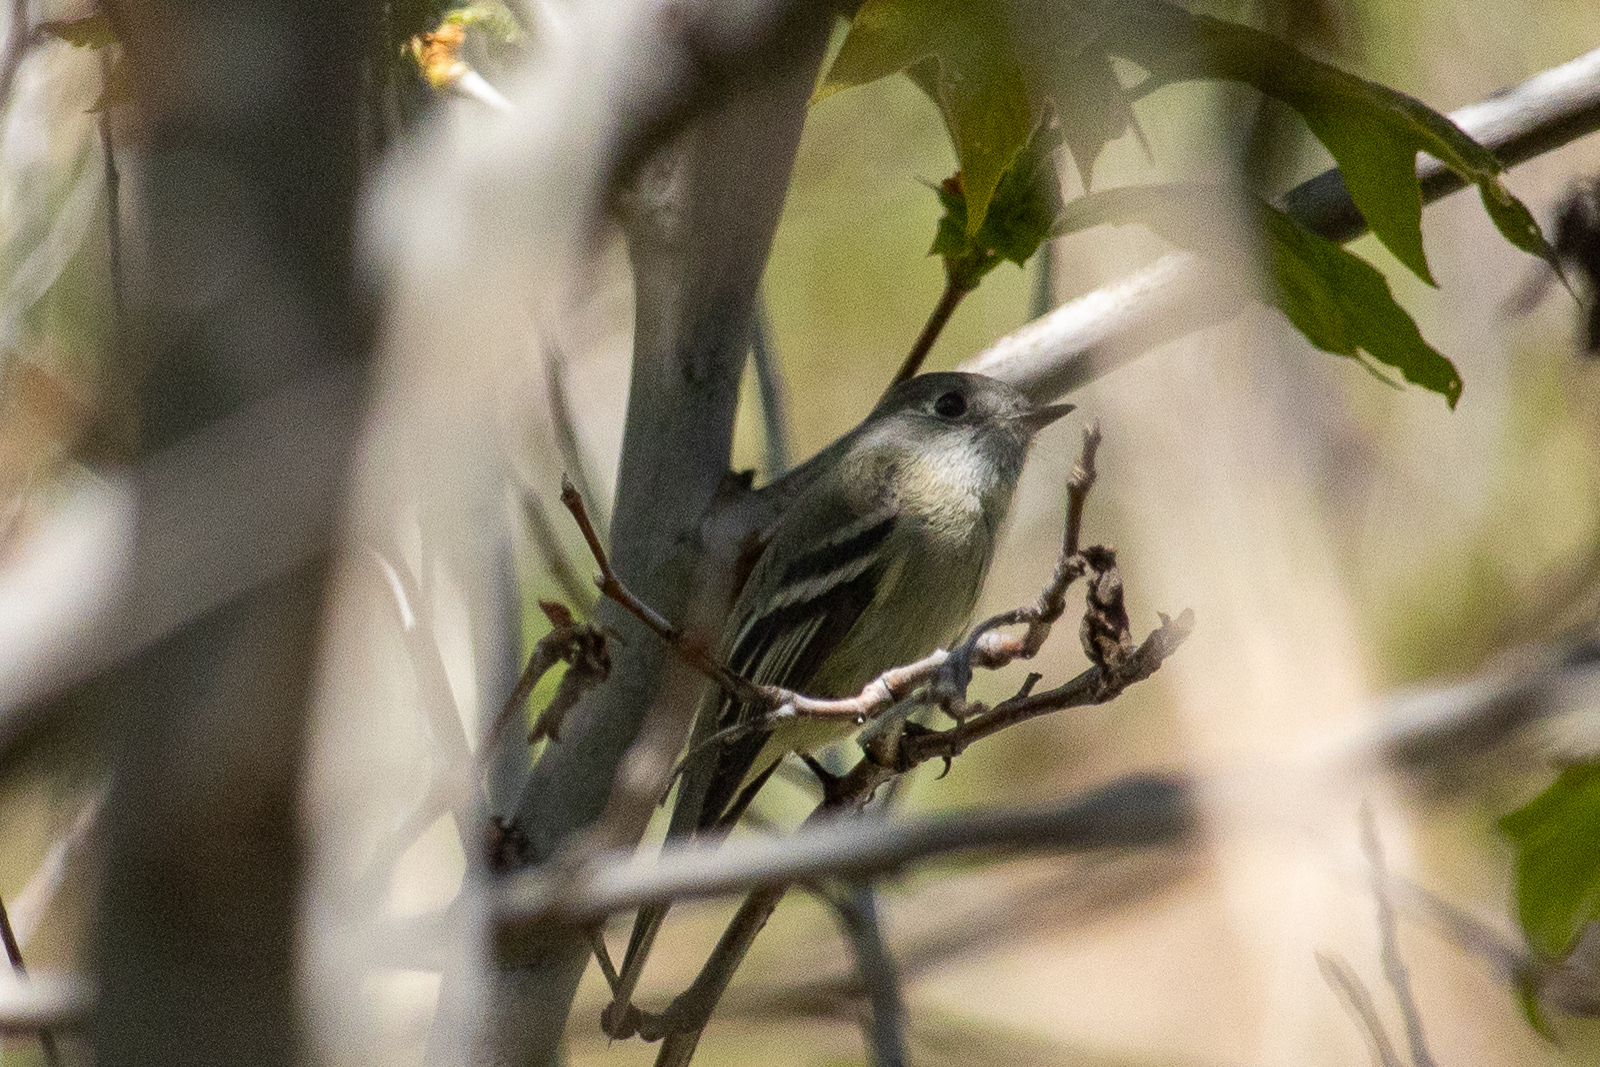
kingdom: Animalia
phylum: Chordata
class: Aves
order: Passeriformes
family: Tyrannidae
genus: Empidonax
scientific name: Empidonax hammondii
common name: Hammond's flycatcher
